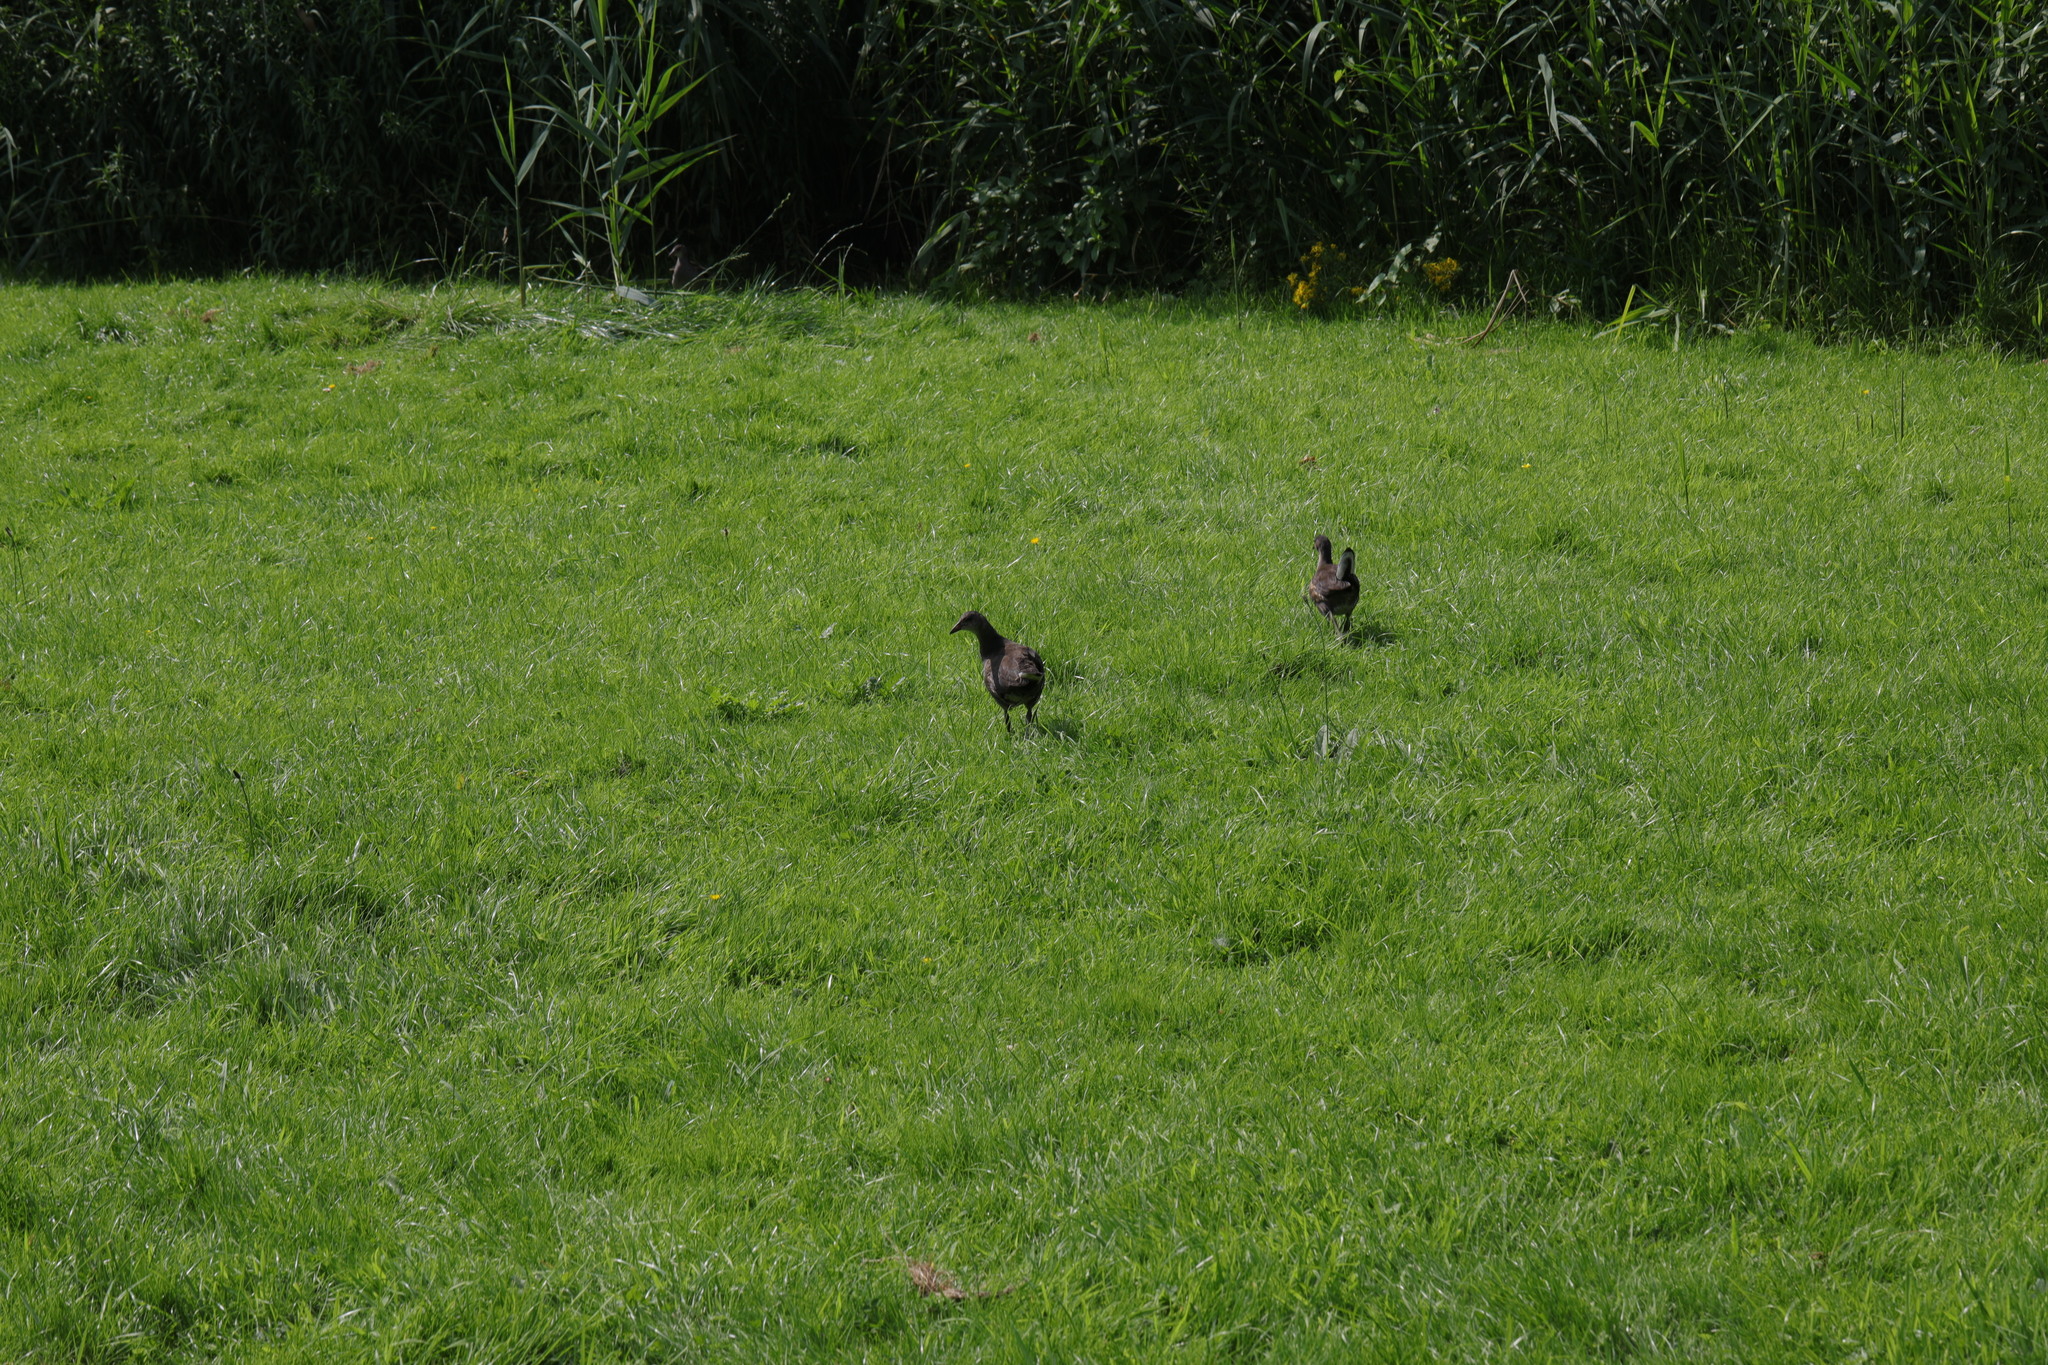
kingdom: Animalia
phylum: Chordata
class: Aves
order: Gruiformes
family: Rallidae
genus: Gallinula
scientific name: Gallinula chloropus
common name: Common moorhen
